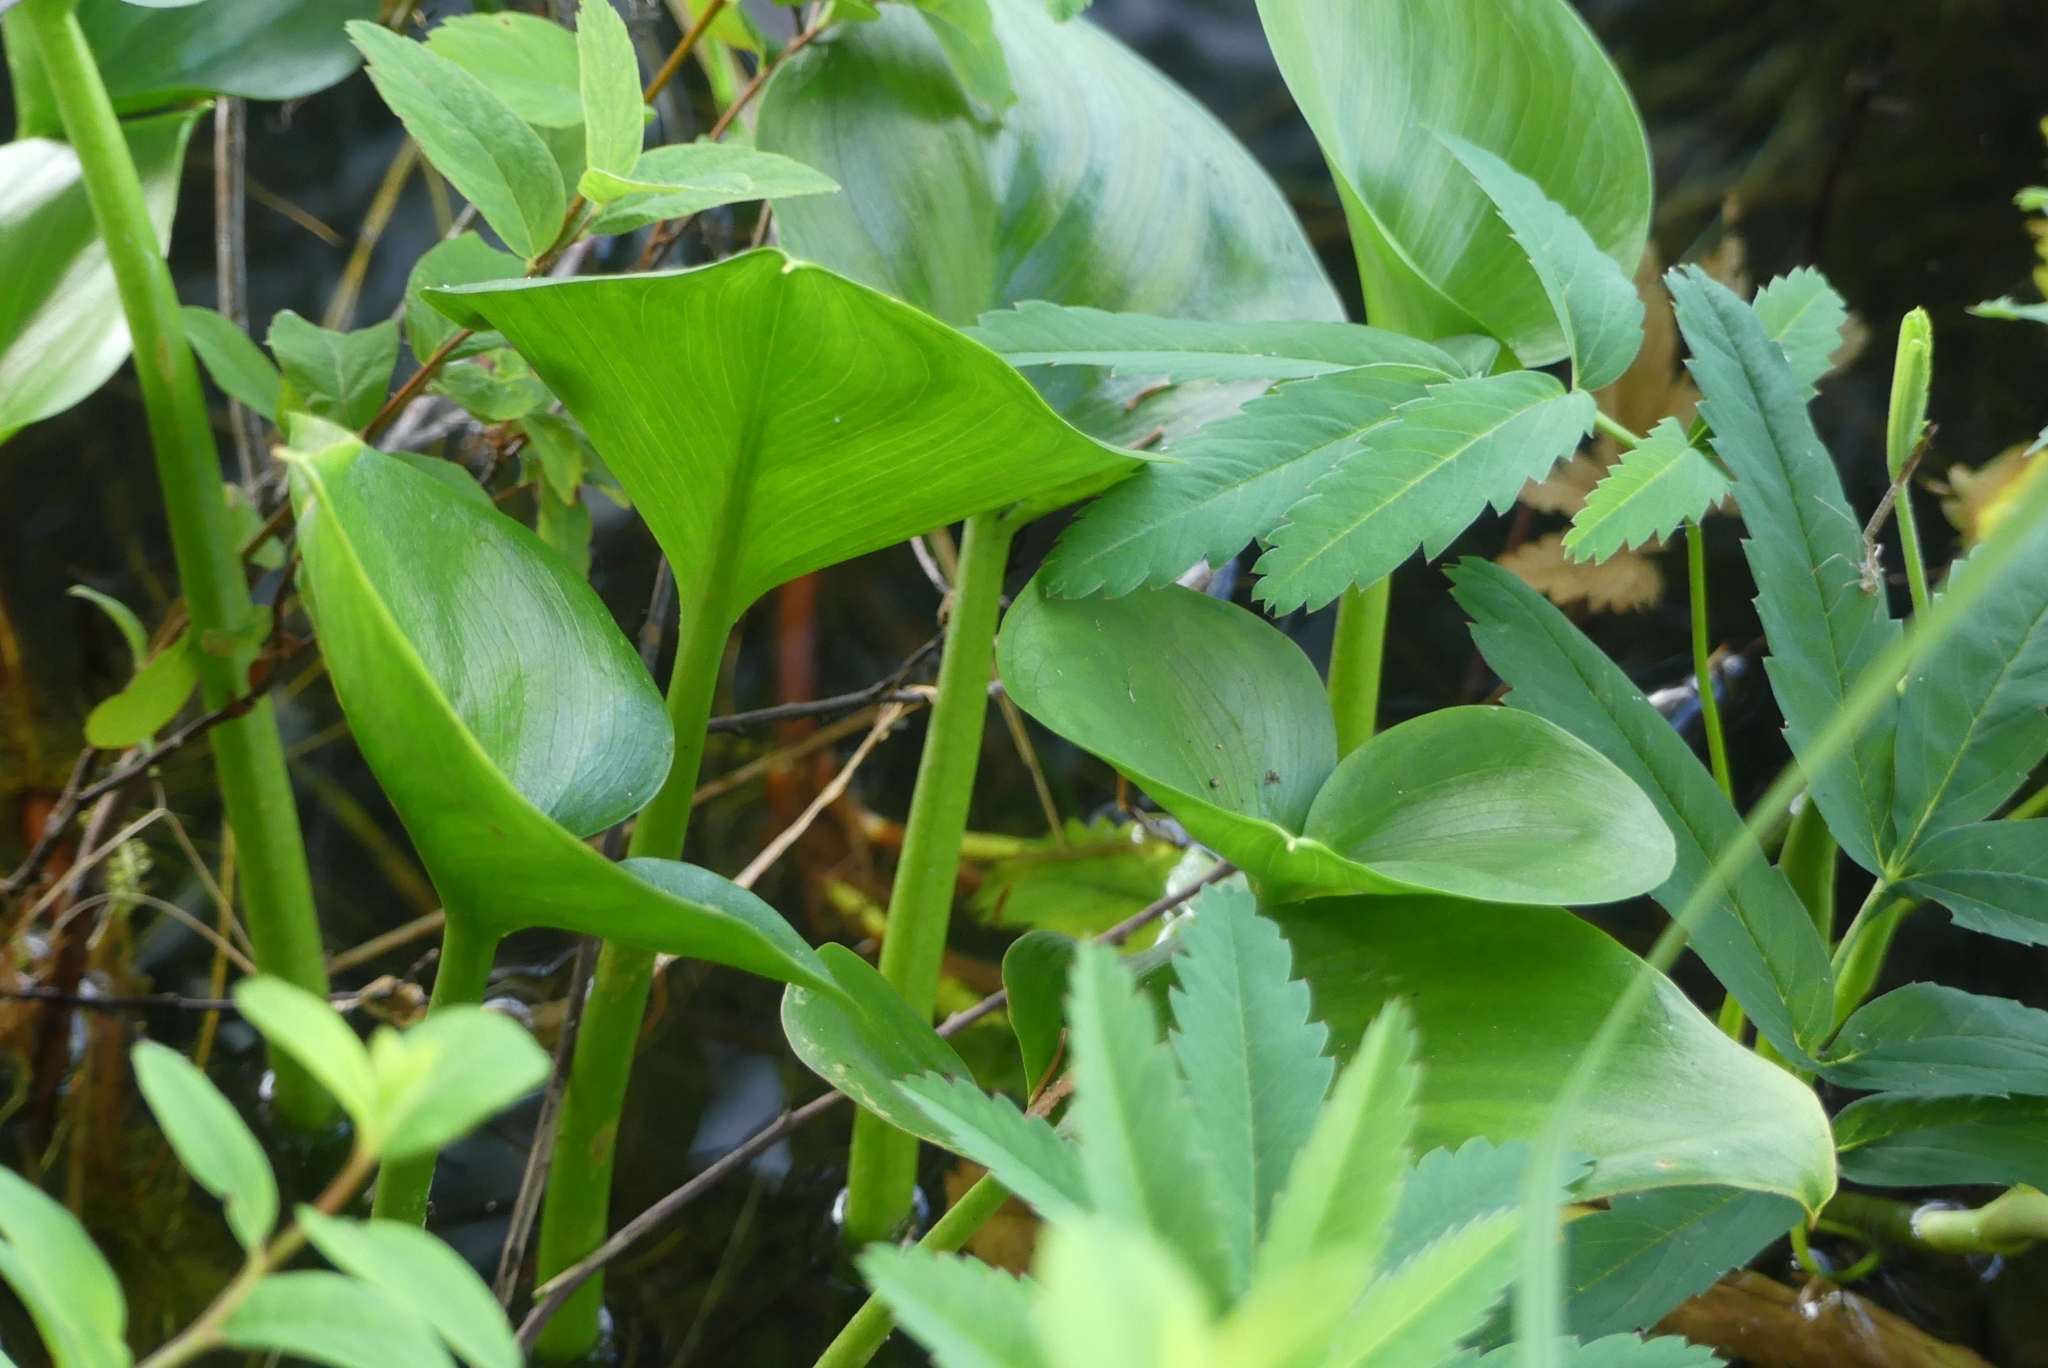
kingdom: Plantae
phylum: Tracheophyta
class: Liliopsida
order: Alismatales
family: Araceae
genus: Calla
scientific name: Calla palustris
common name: Bog arum
